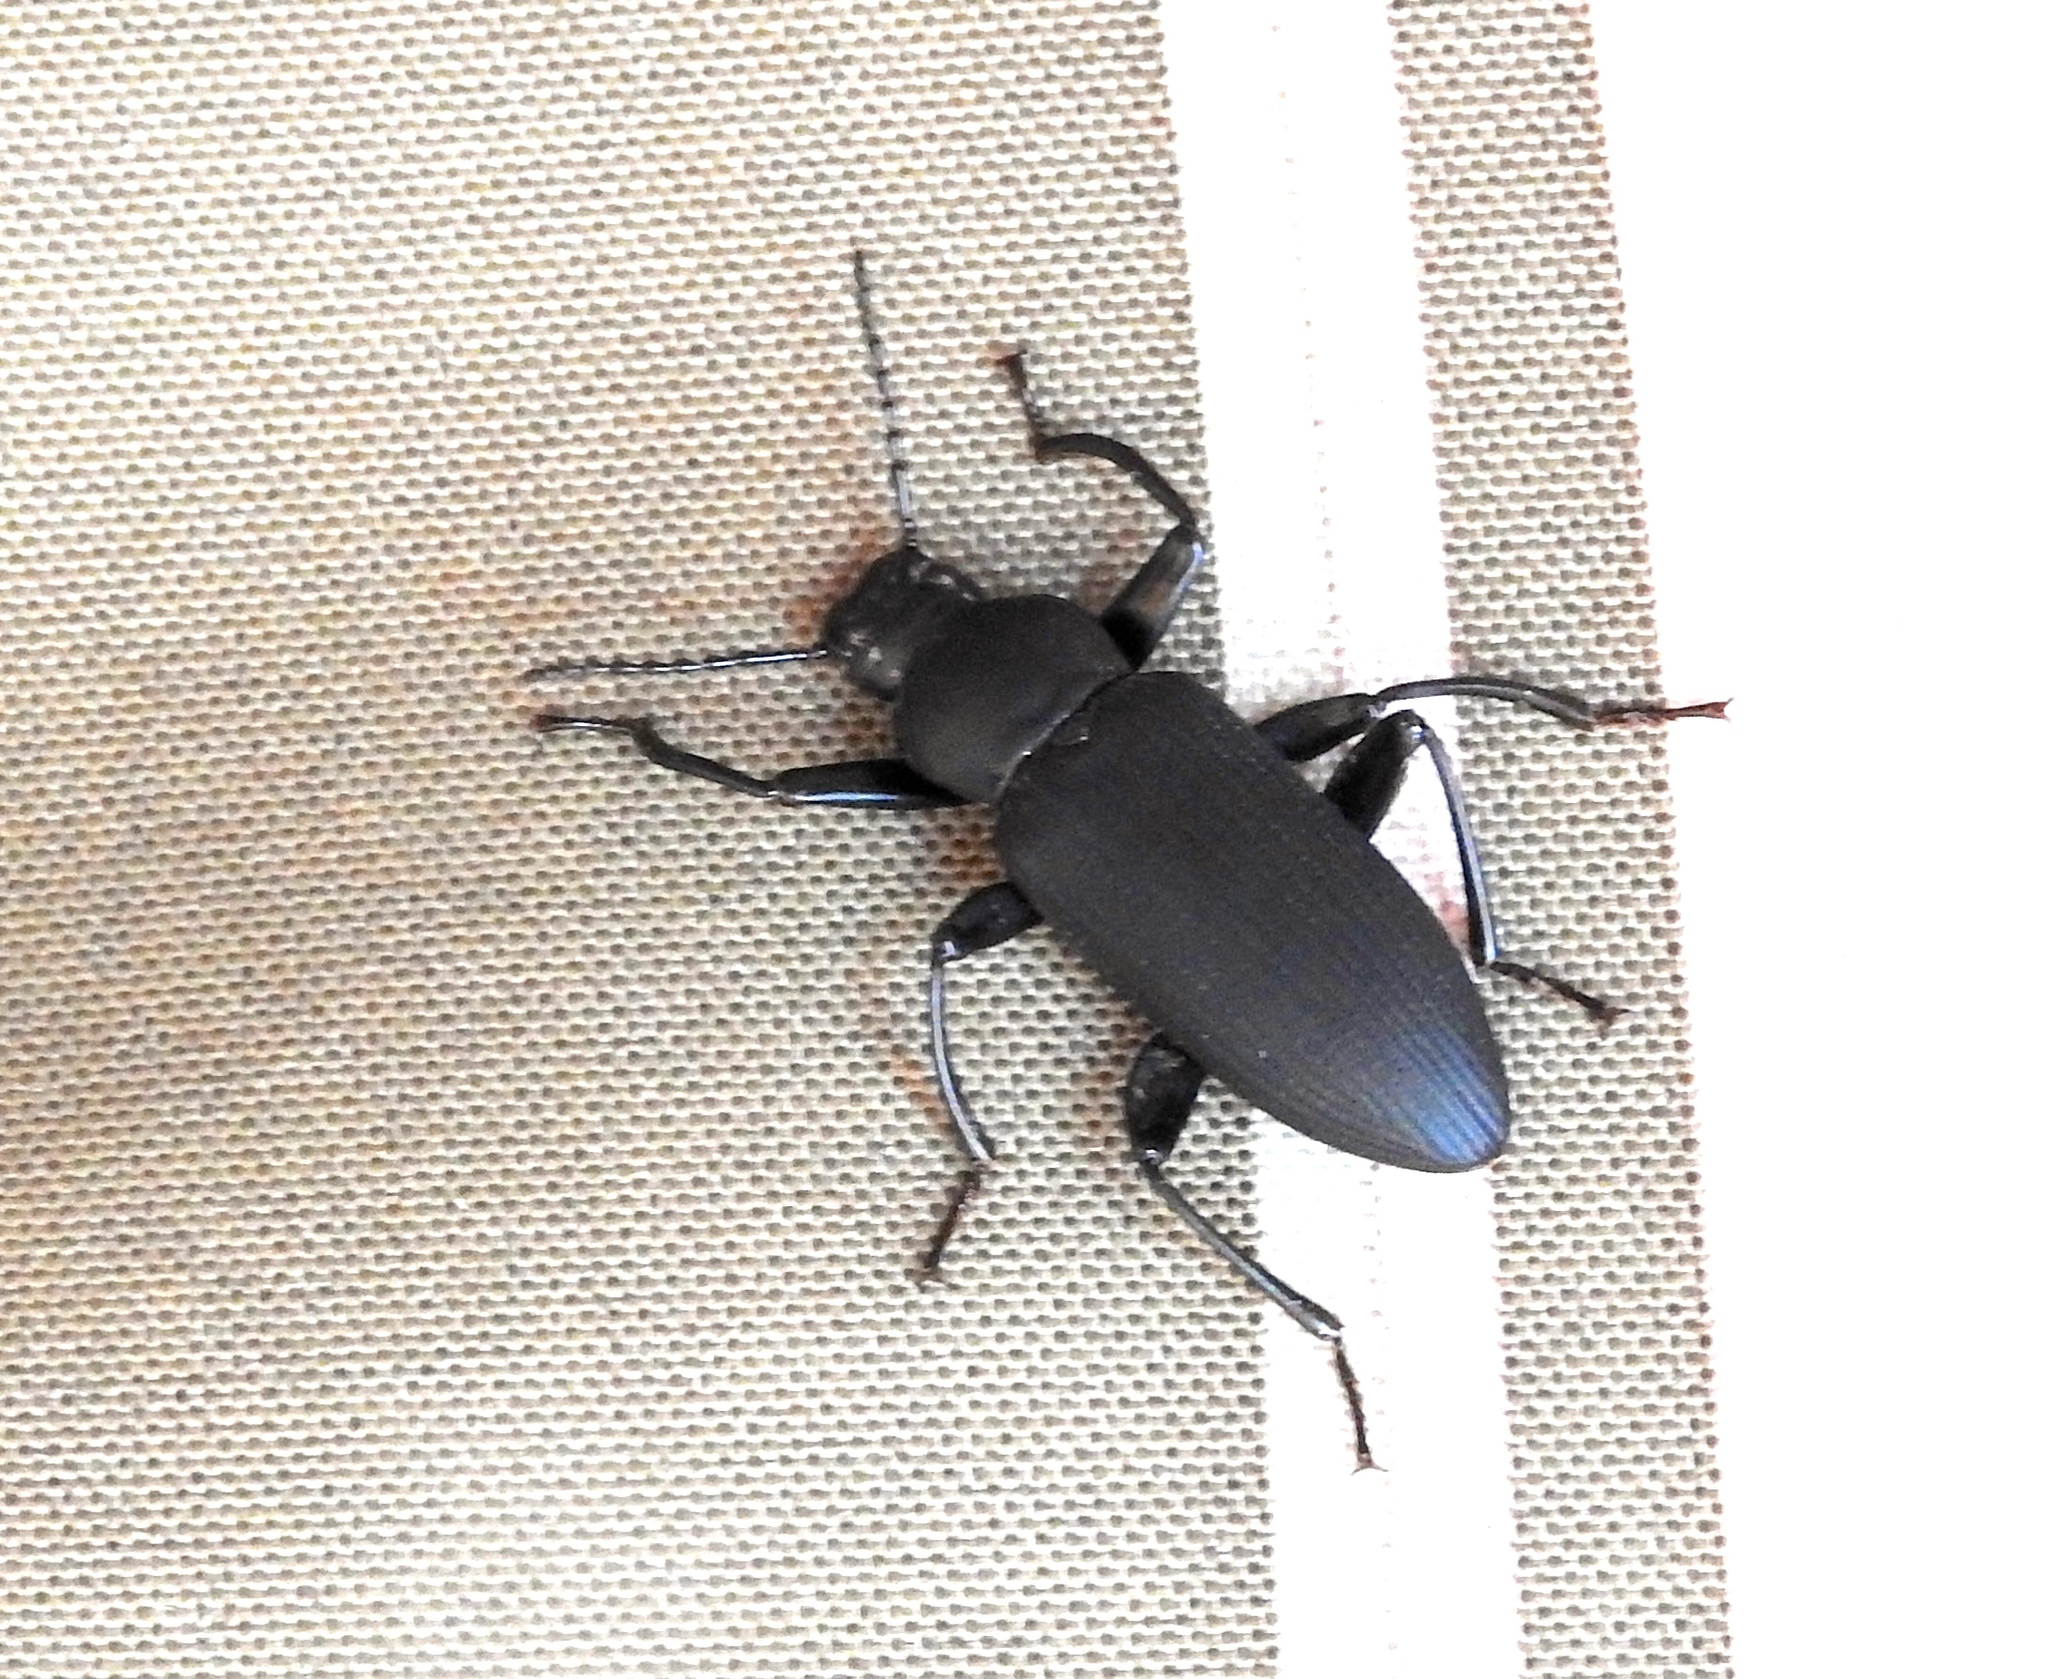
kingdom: Animalia
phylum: Arthropoda
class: Insecta
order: Coleoptera
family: Tenebrionidae
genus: Zophobas
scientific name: Zophobas
